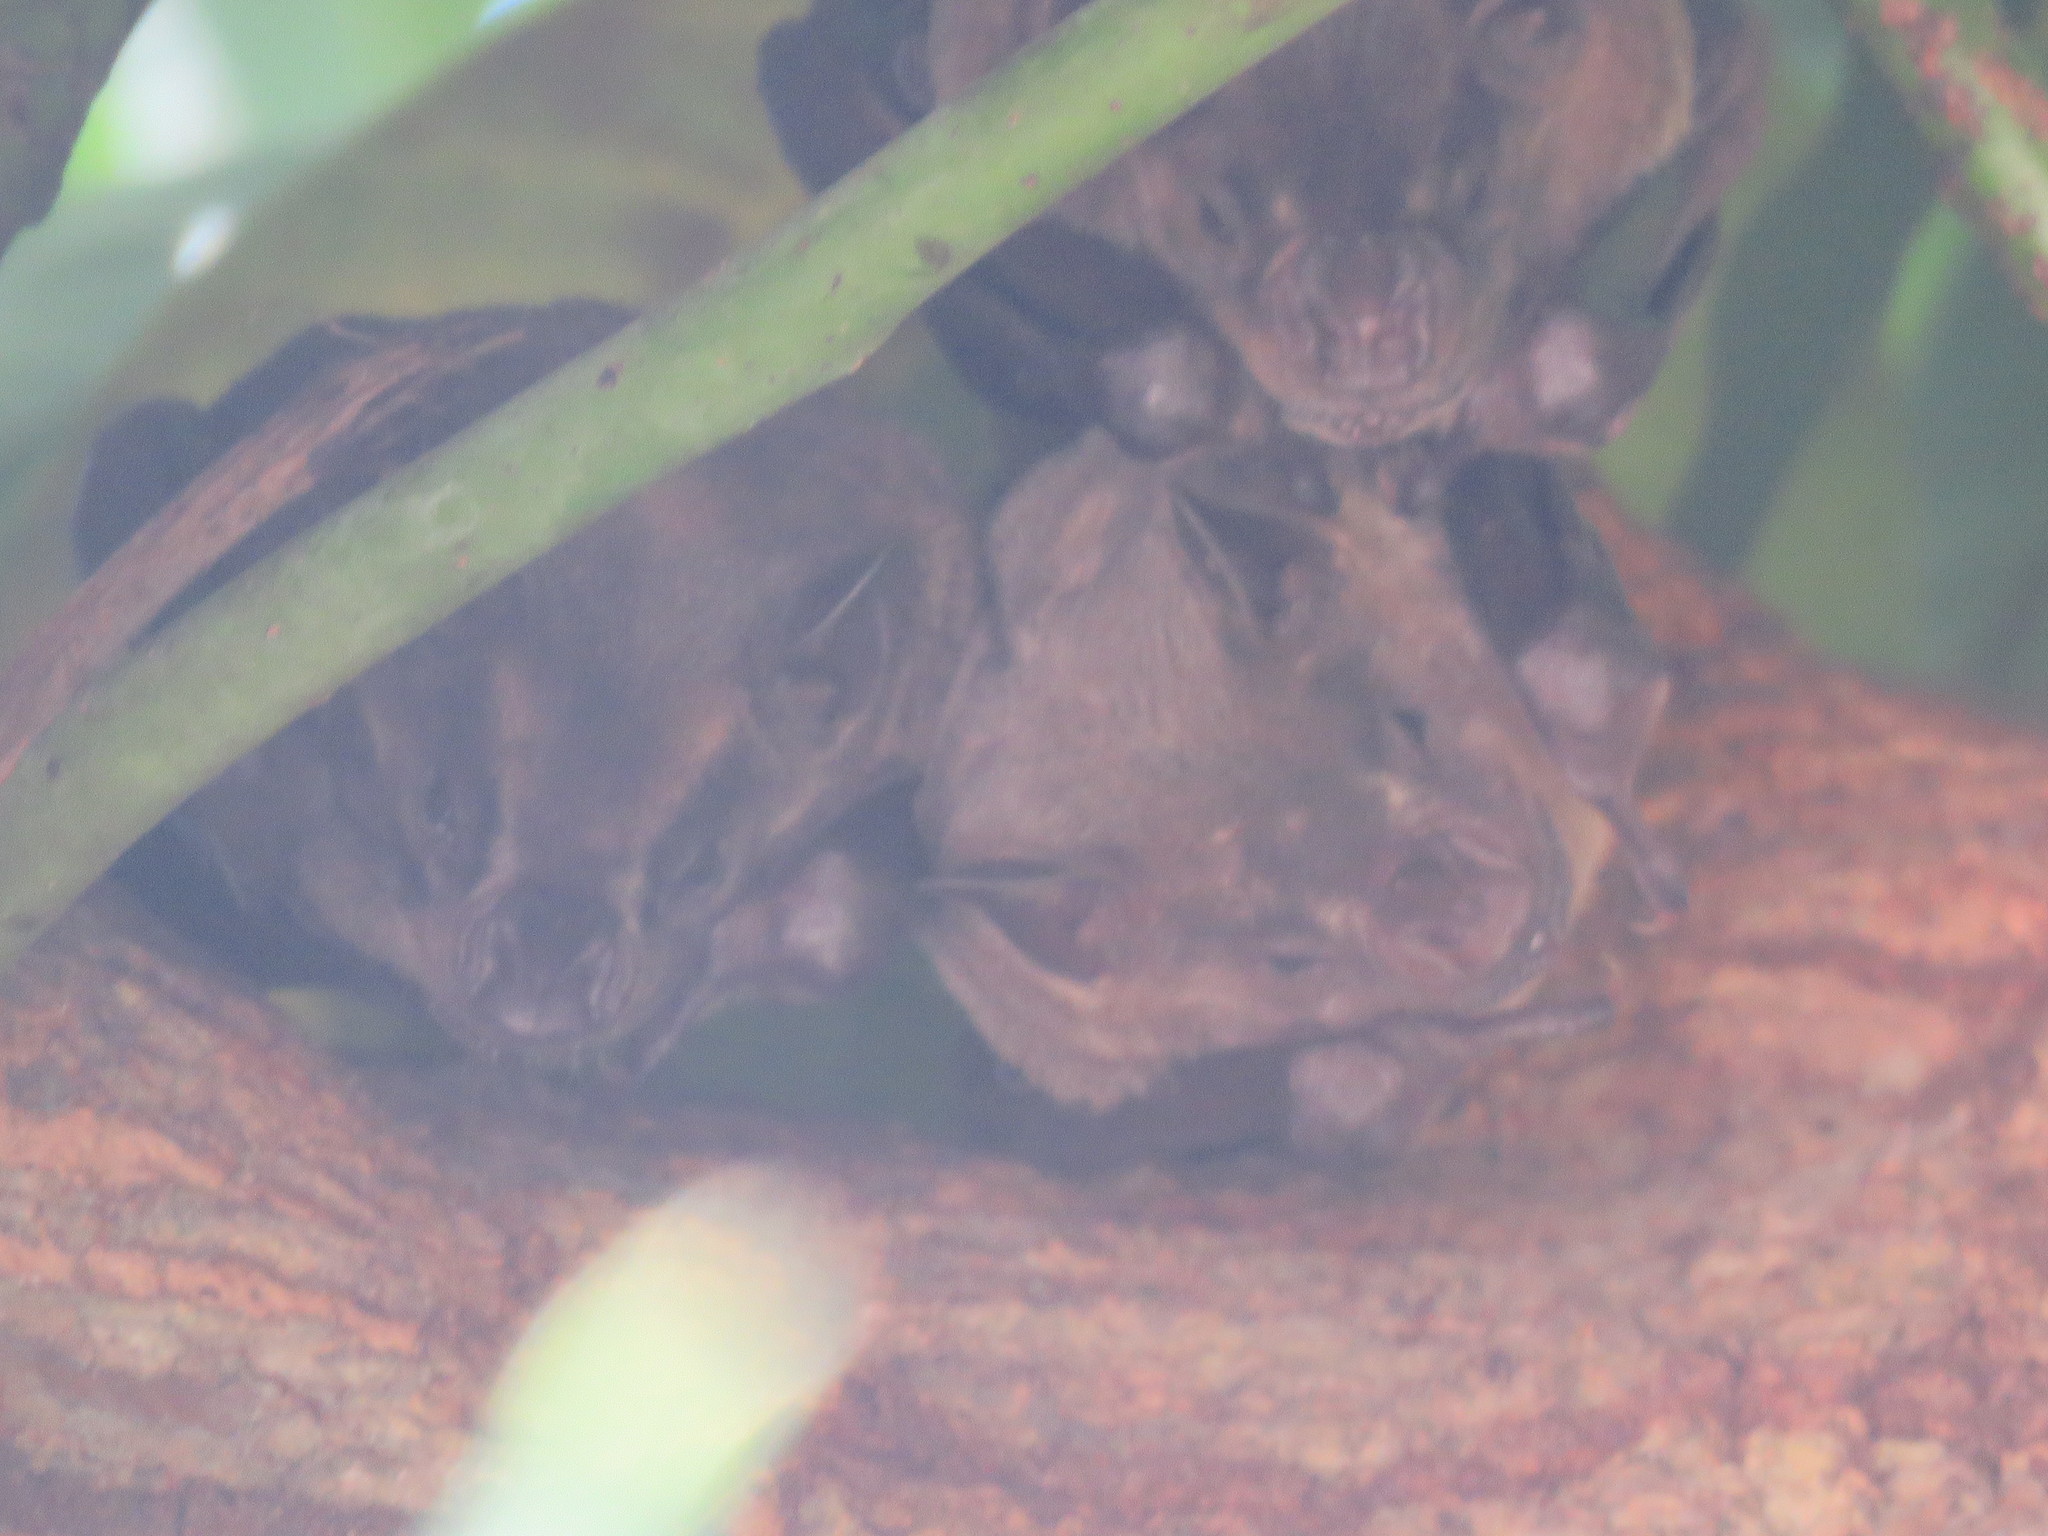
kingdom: Animalia
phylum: Chordata
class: Mammalia
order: Chiroptera
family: Phyllostomidae
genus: Artibeus
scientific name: Artibeus planirostris
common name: Flat-faced fruit-eating bat
